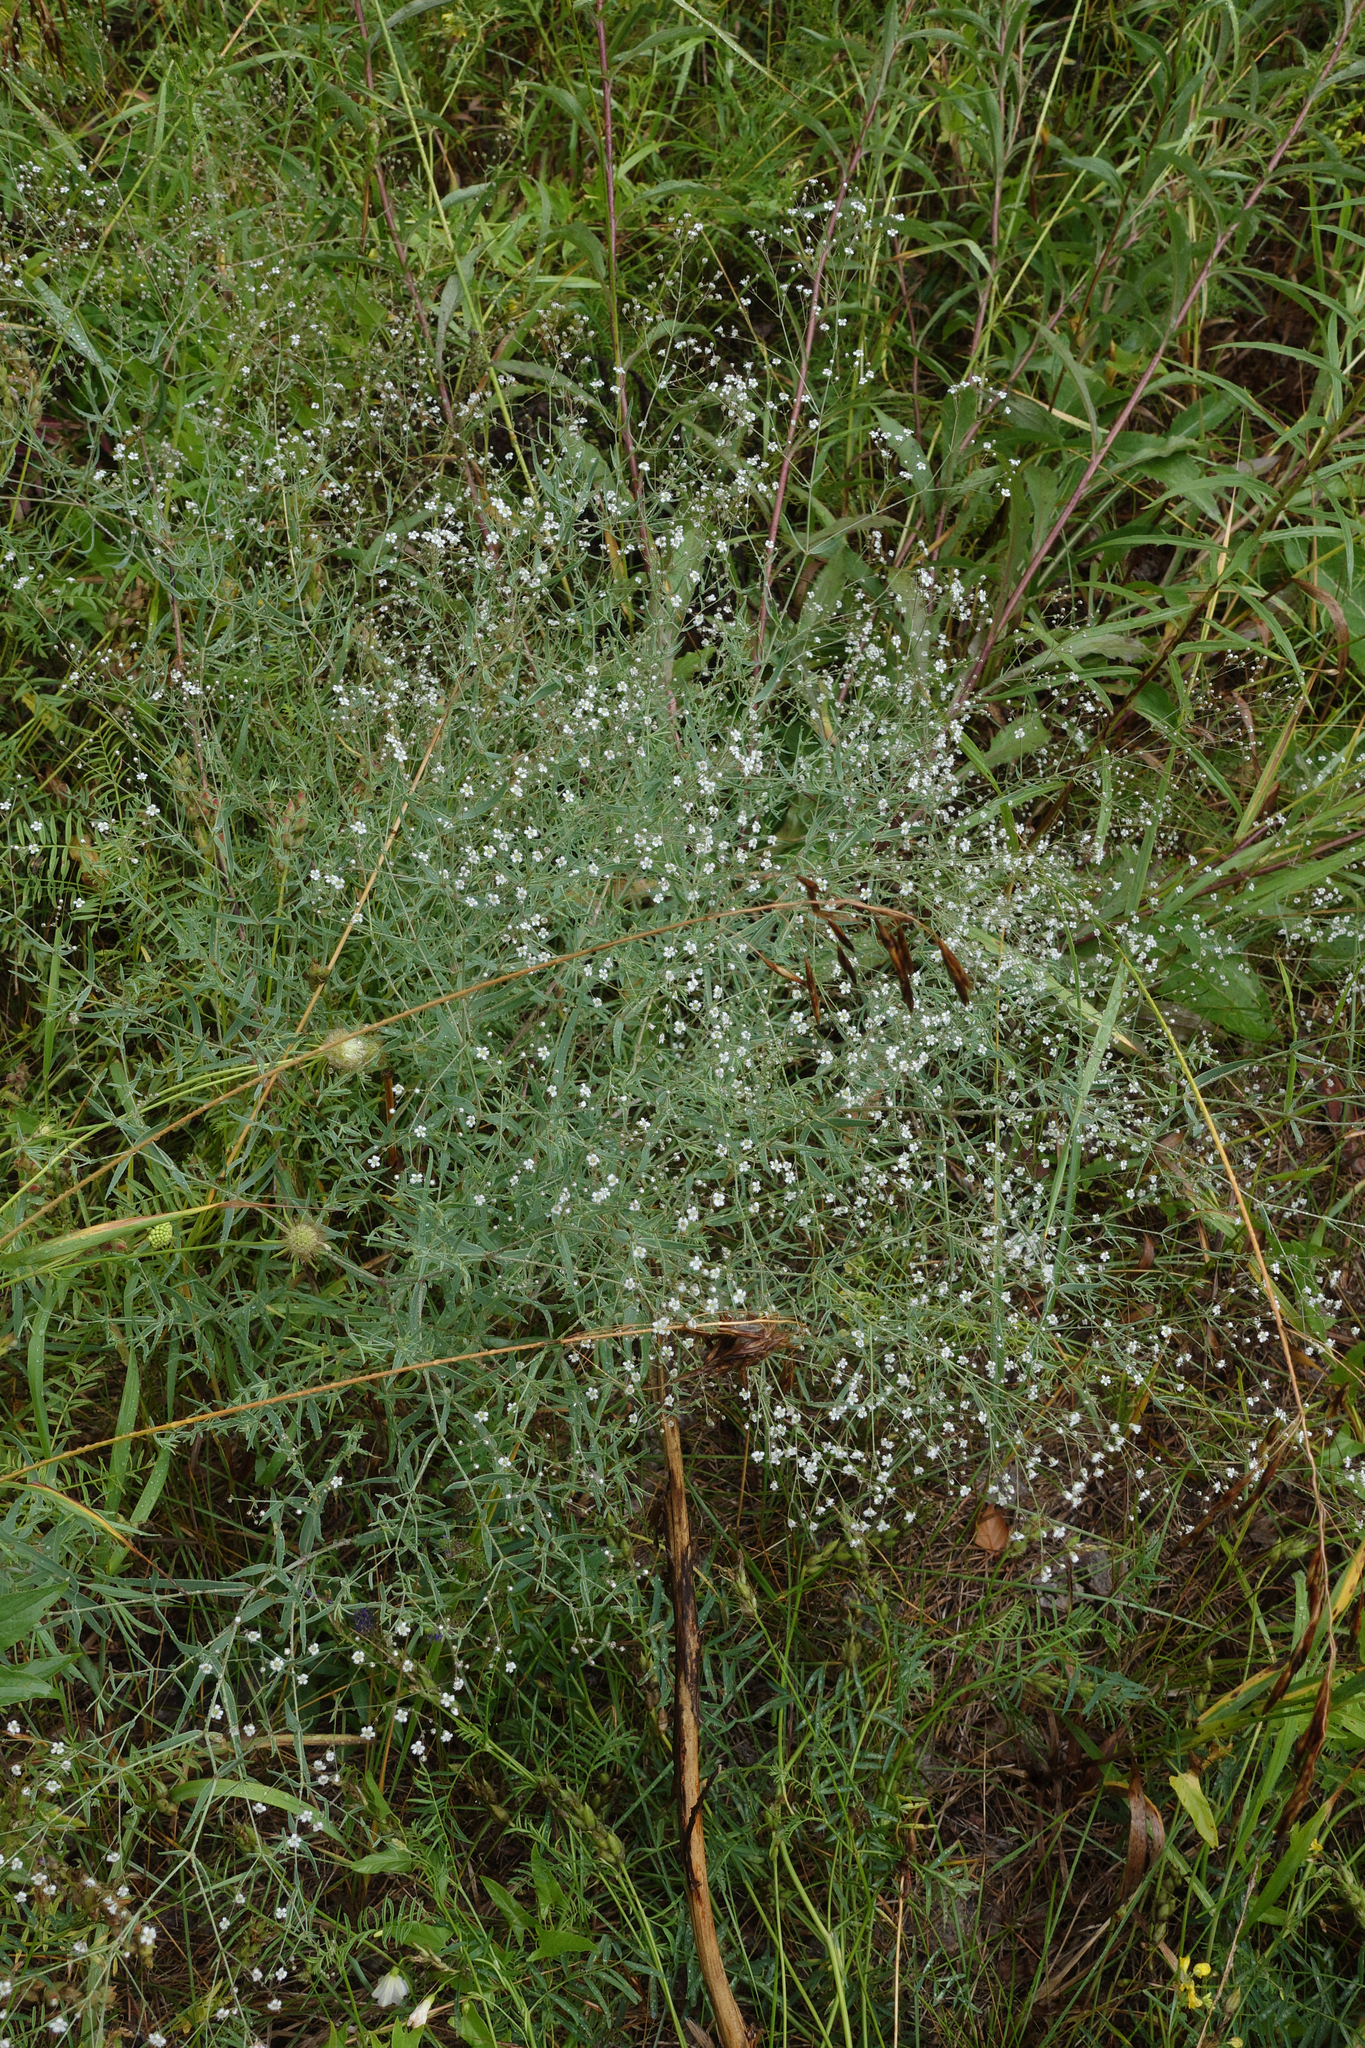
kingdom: Plantae
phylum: Tracheophyta
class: Magnoliopsida
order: Caryophyllales
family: Caryophyllaceae
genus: Gypsophila
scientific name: Gypsophila paniculata
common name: Baby's-breath
